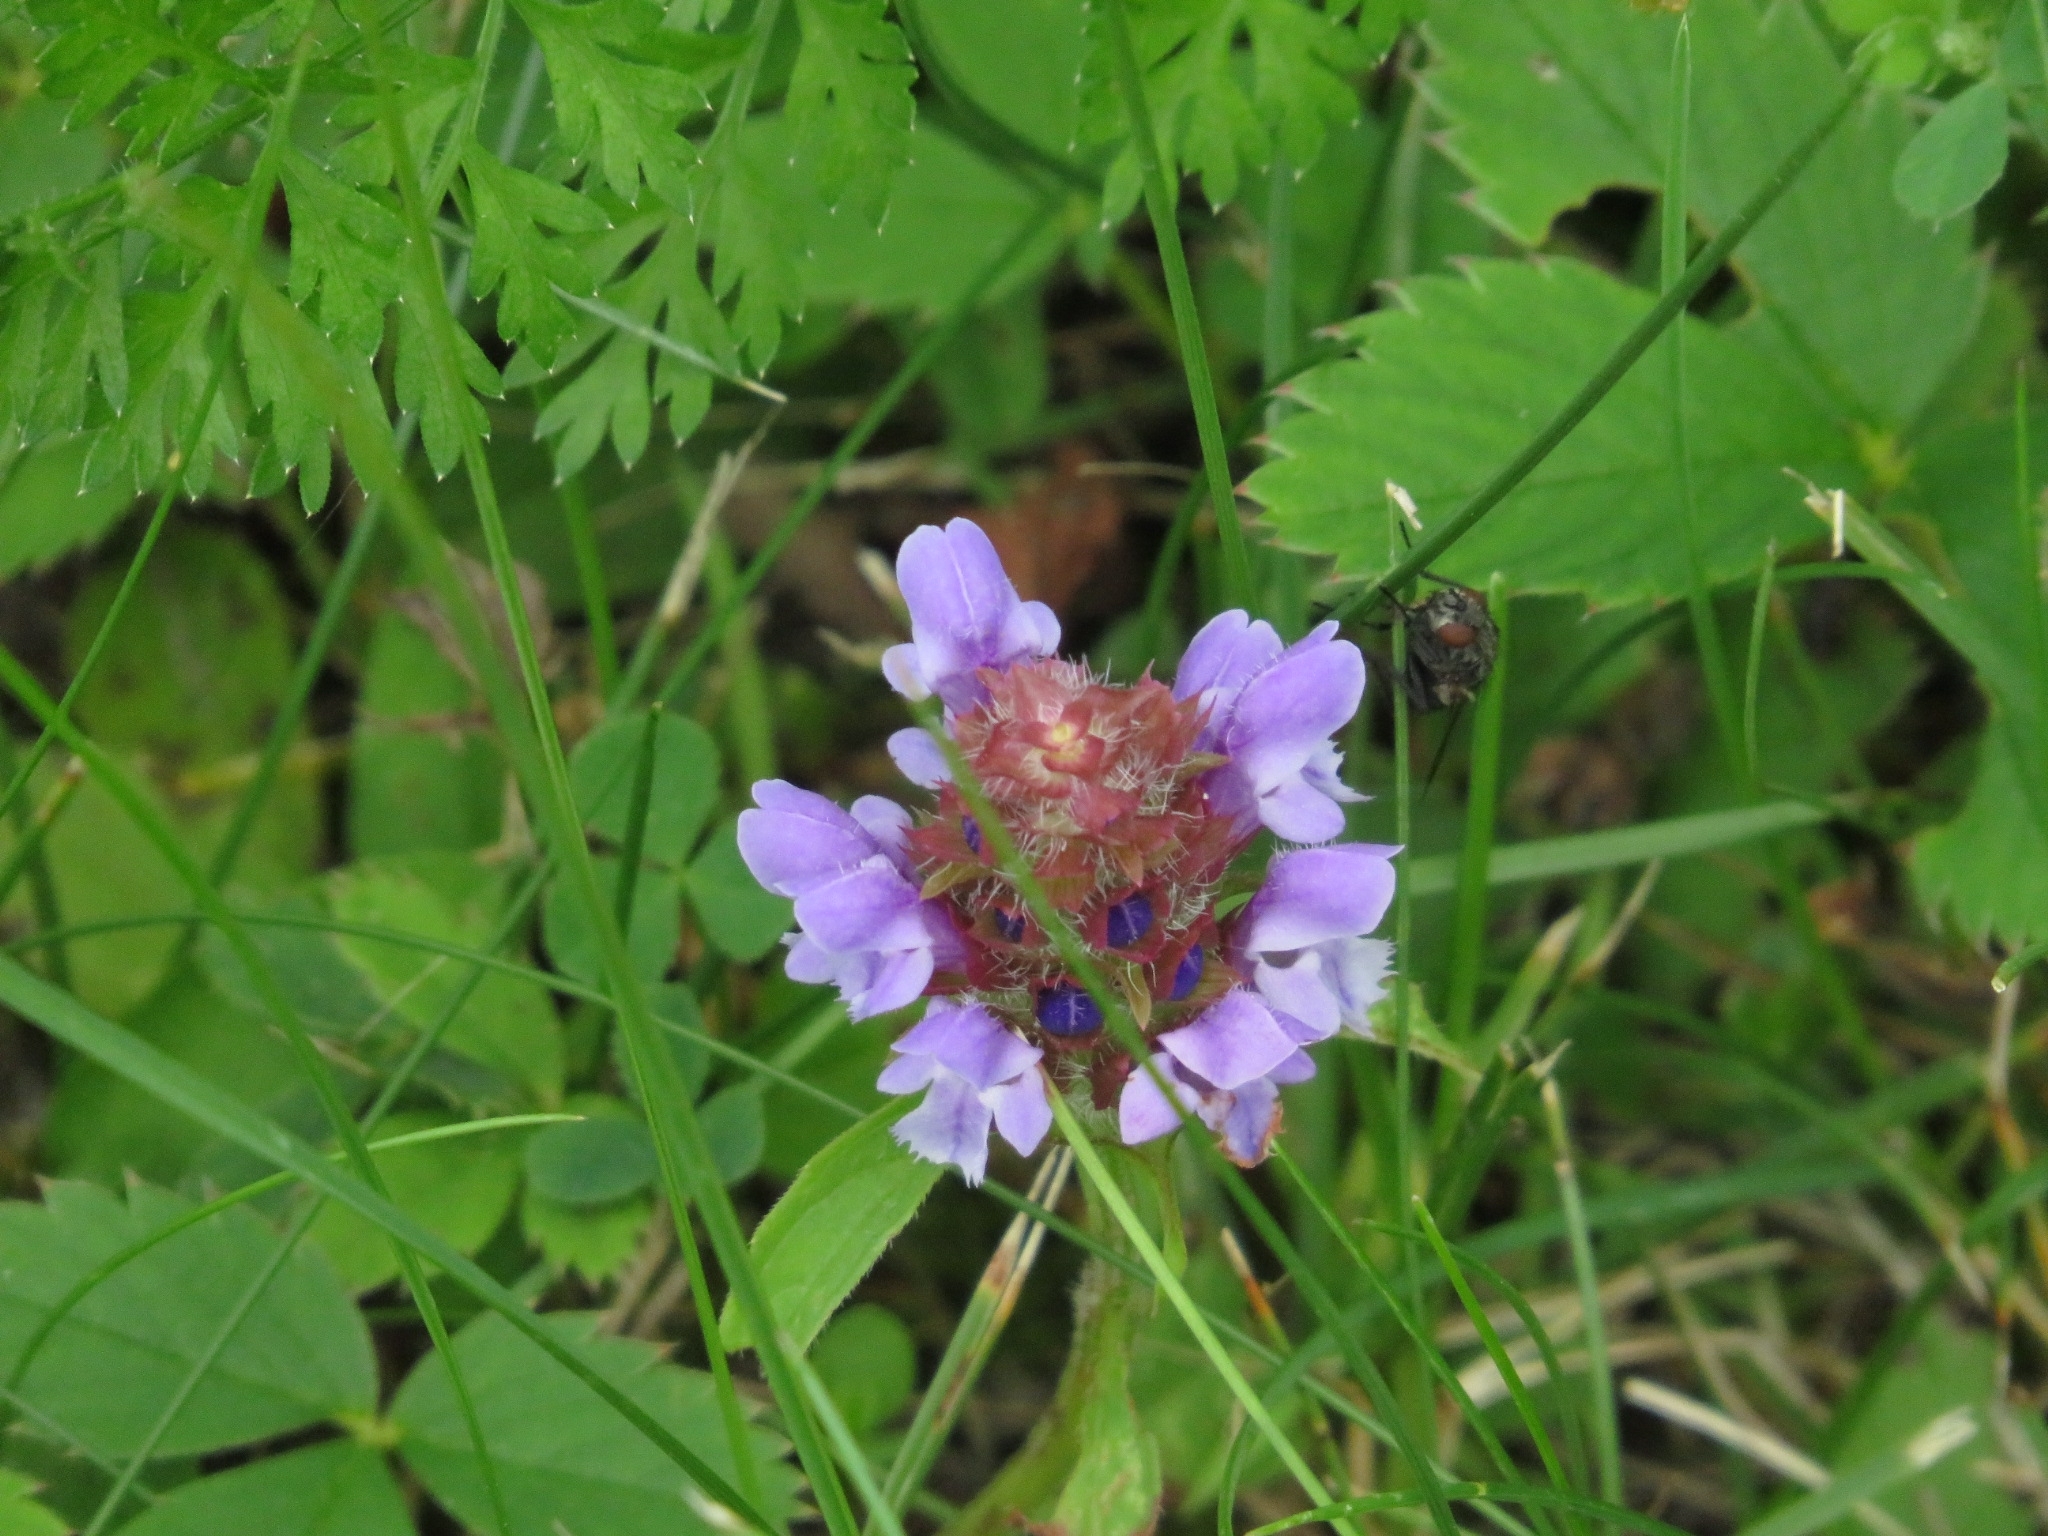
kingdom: Plantae
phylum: Tracheophyta
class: Magnoliopsida
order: Lamiales
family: Lamiaceae
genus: Prunella
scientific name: Prunella vulgaris
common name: Heal-all
